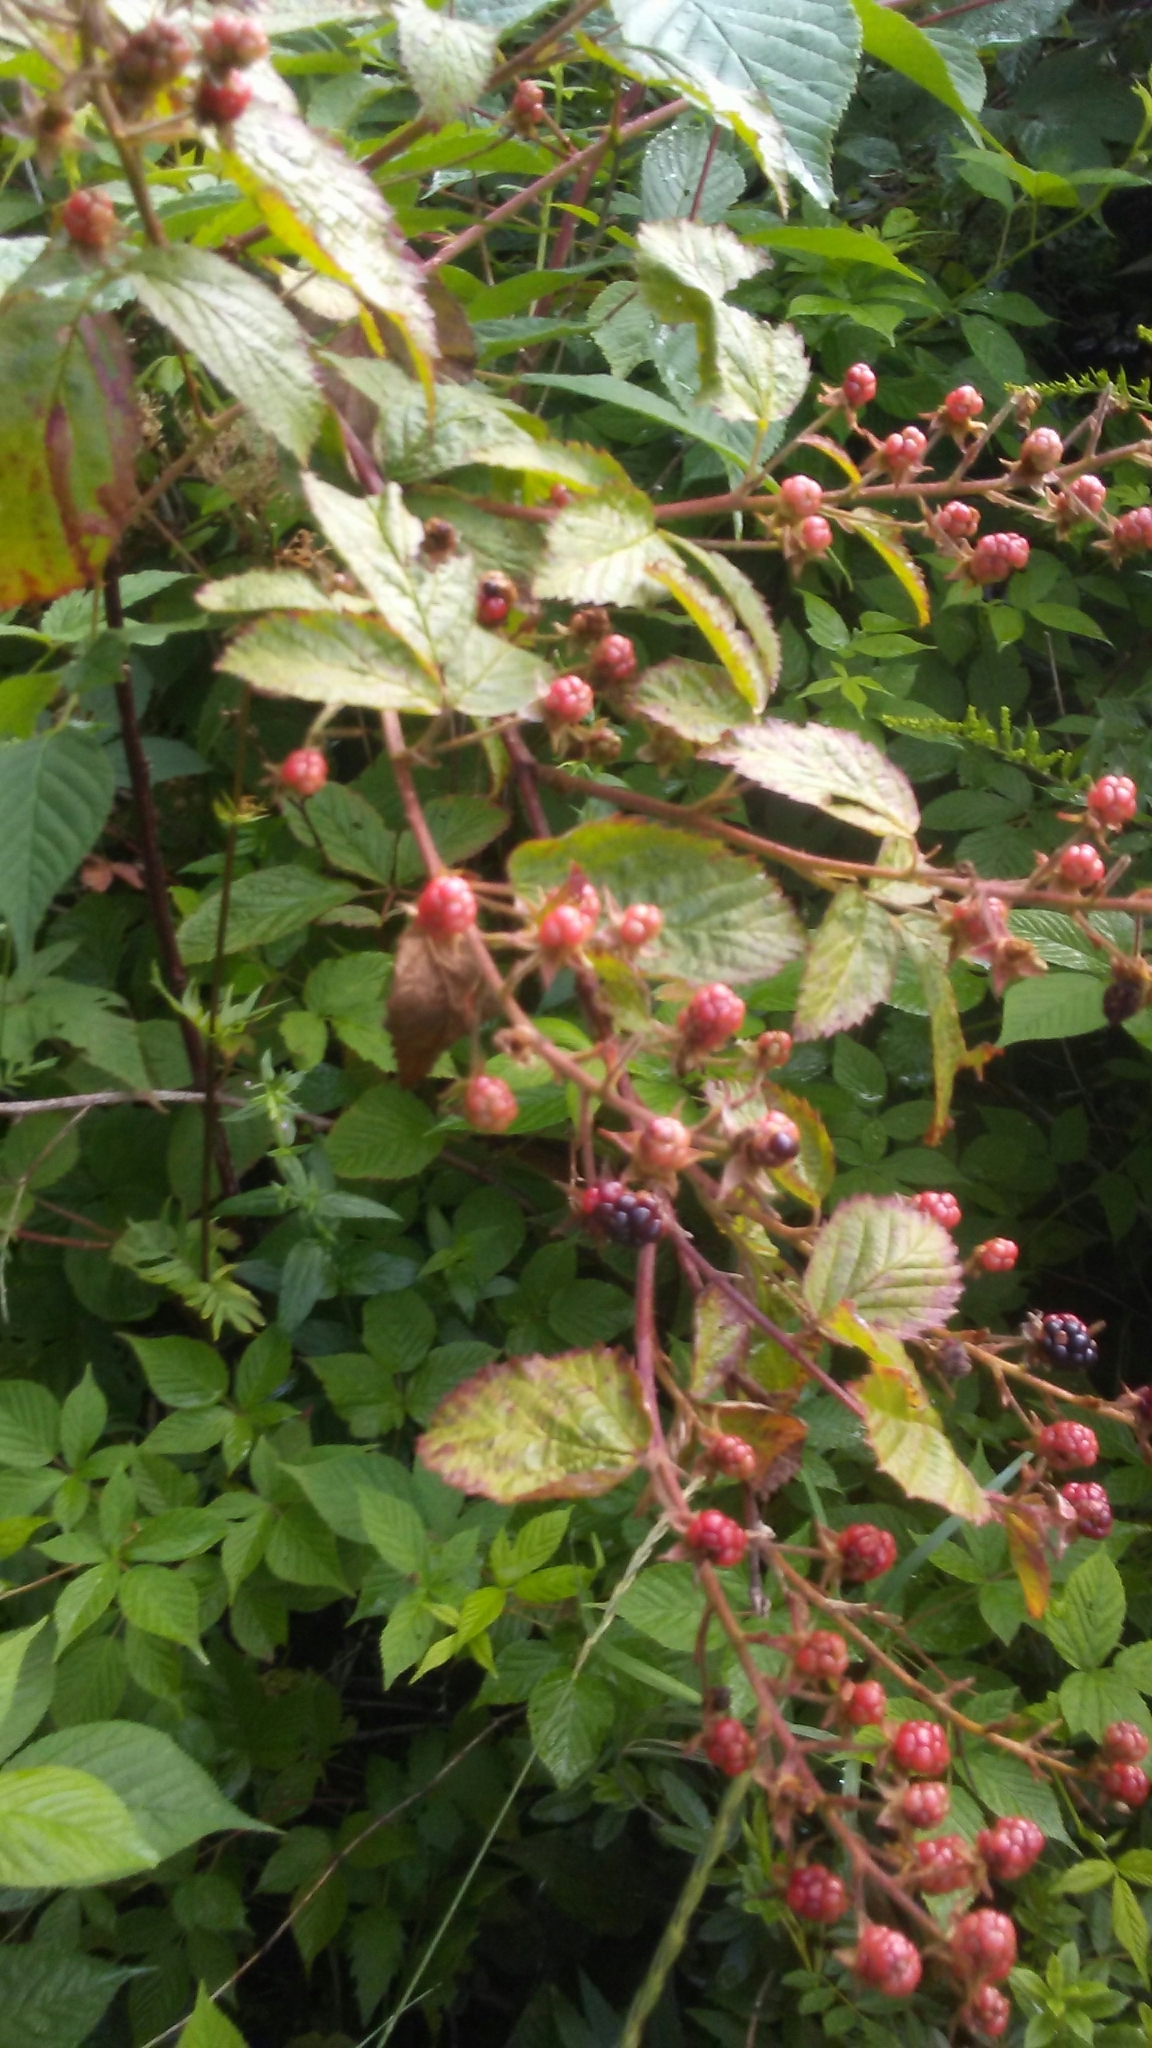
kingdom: Plantae
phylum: Tracheophyta
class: Magnoliopsida
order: Rosales
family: Rosaceae
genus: Rubus
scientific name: Rubus
